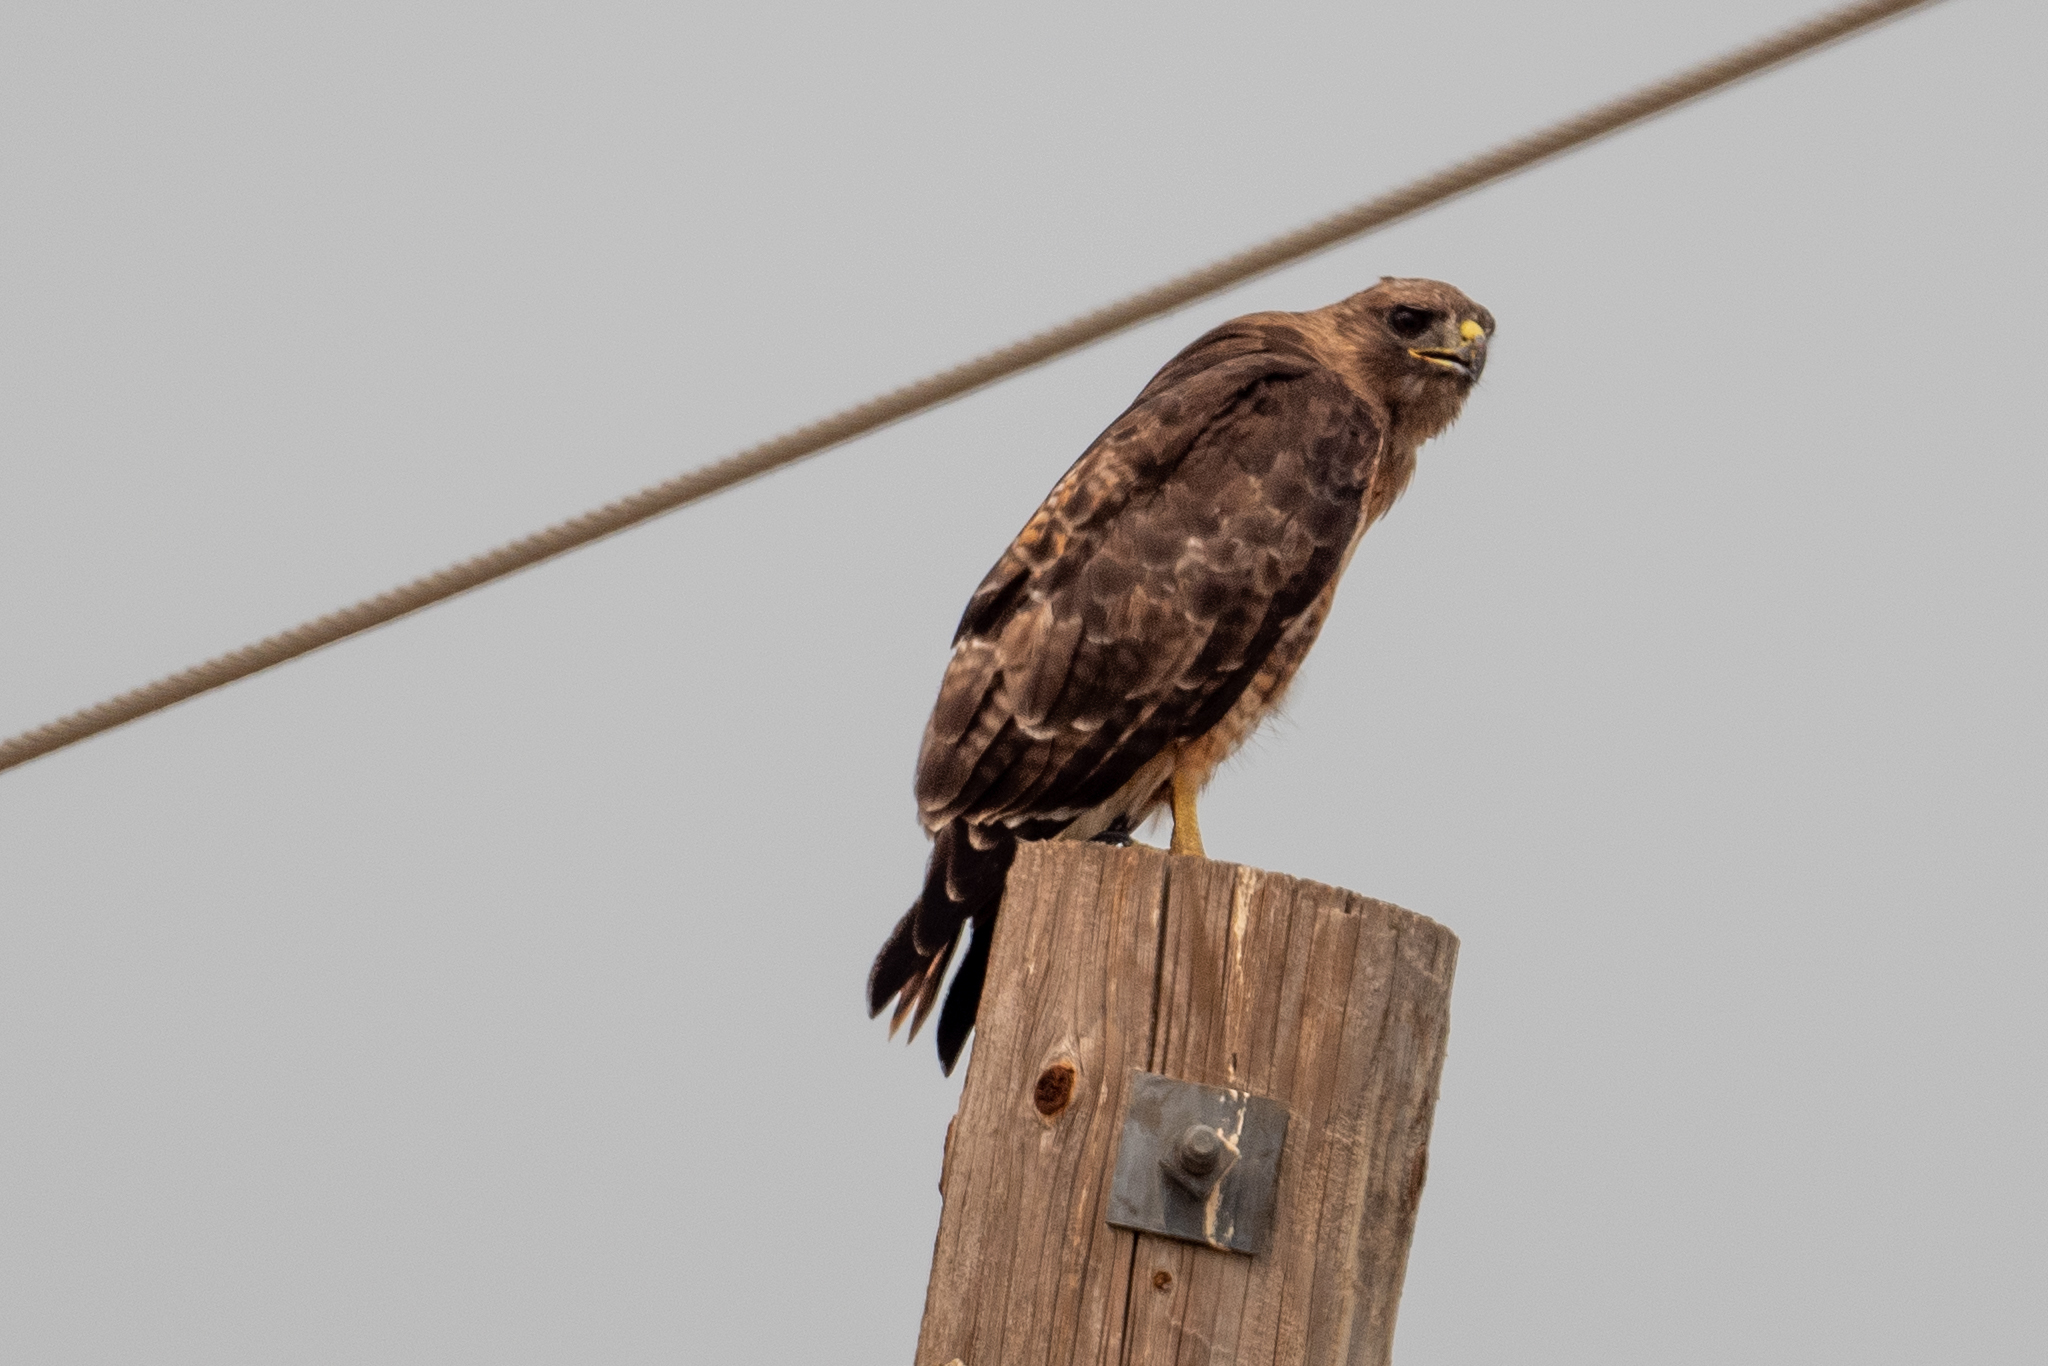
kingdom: Animalia
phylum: Chordata
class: Aves
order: Accipitriformes
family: Accipitridae
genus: Buteo
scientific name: Buteo jamaicensis
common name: Red-tailed hawk
